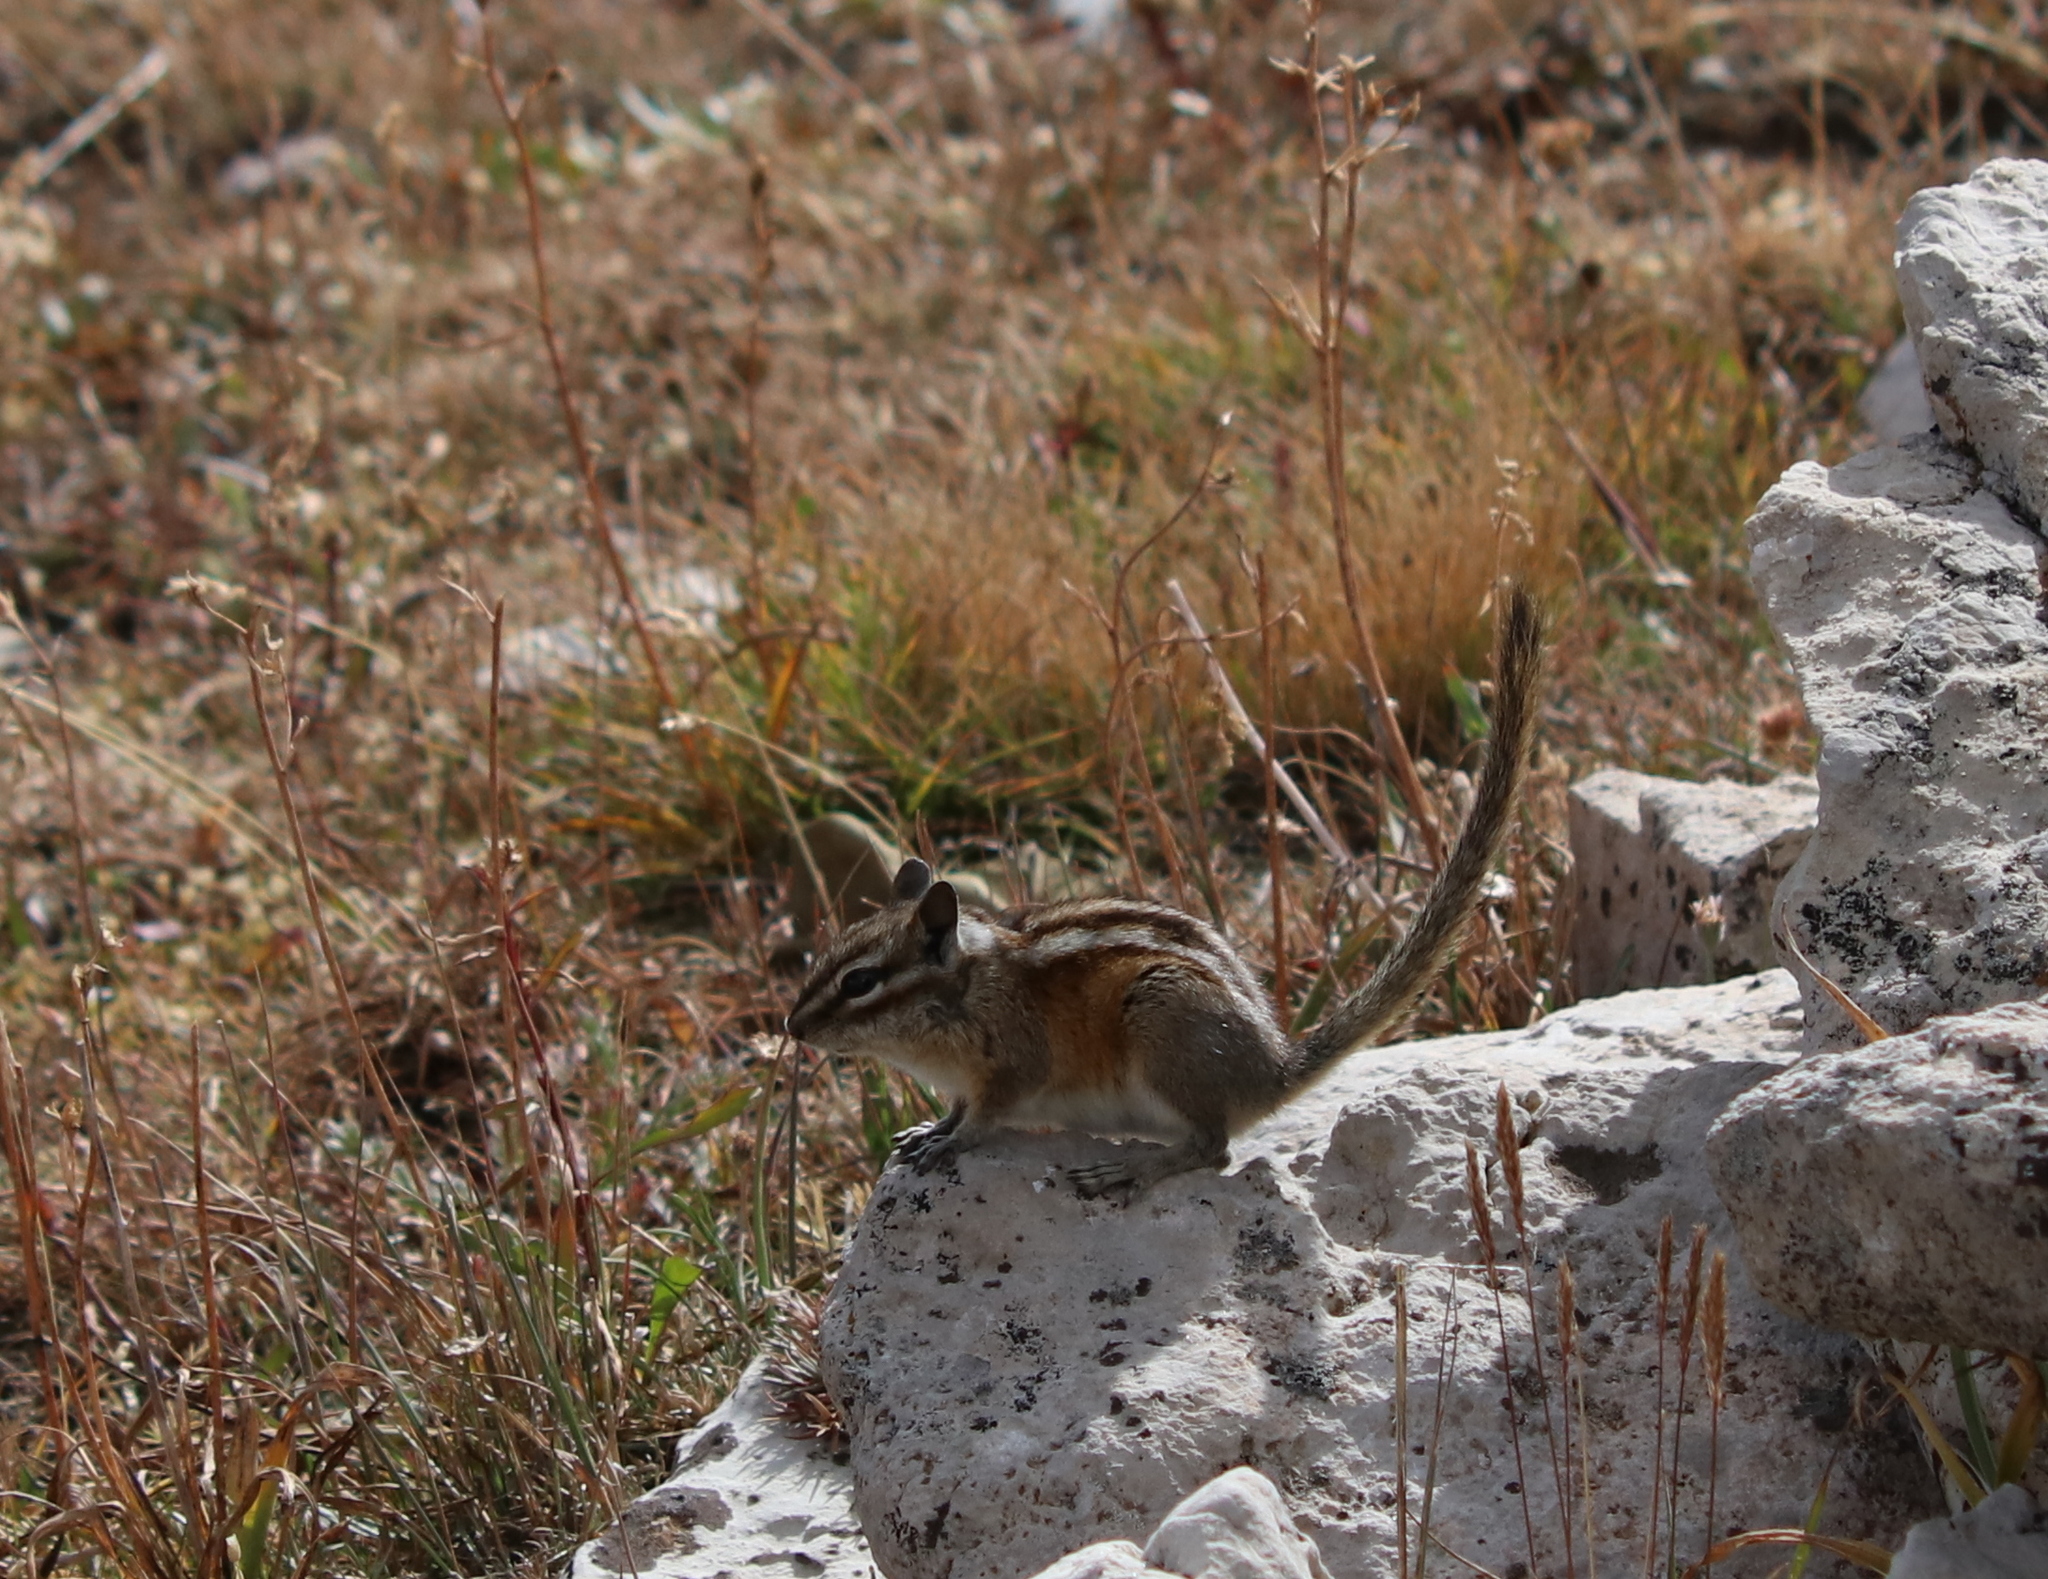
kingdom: Animalia
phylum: Chordata
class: Mammalia
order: Rodentia
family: Sciuridae
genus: Tamias
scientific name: Tamias minimus
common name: Least chipmunk
